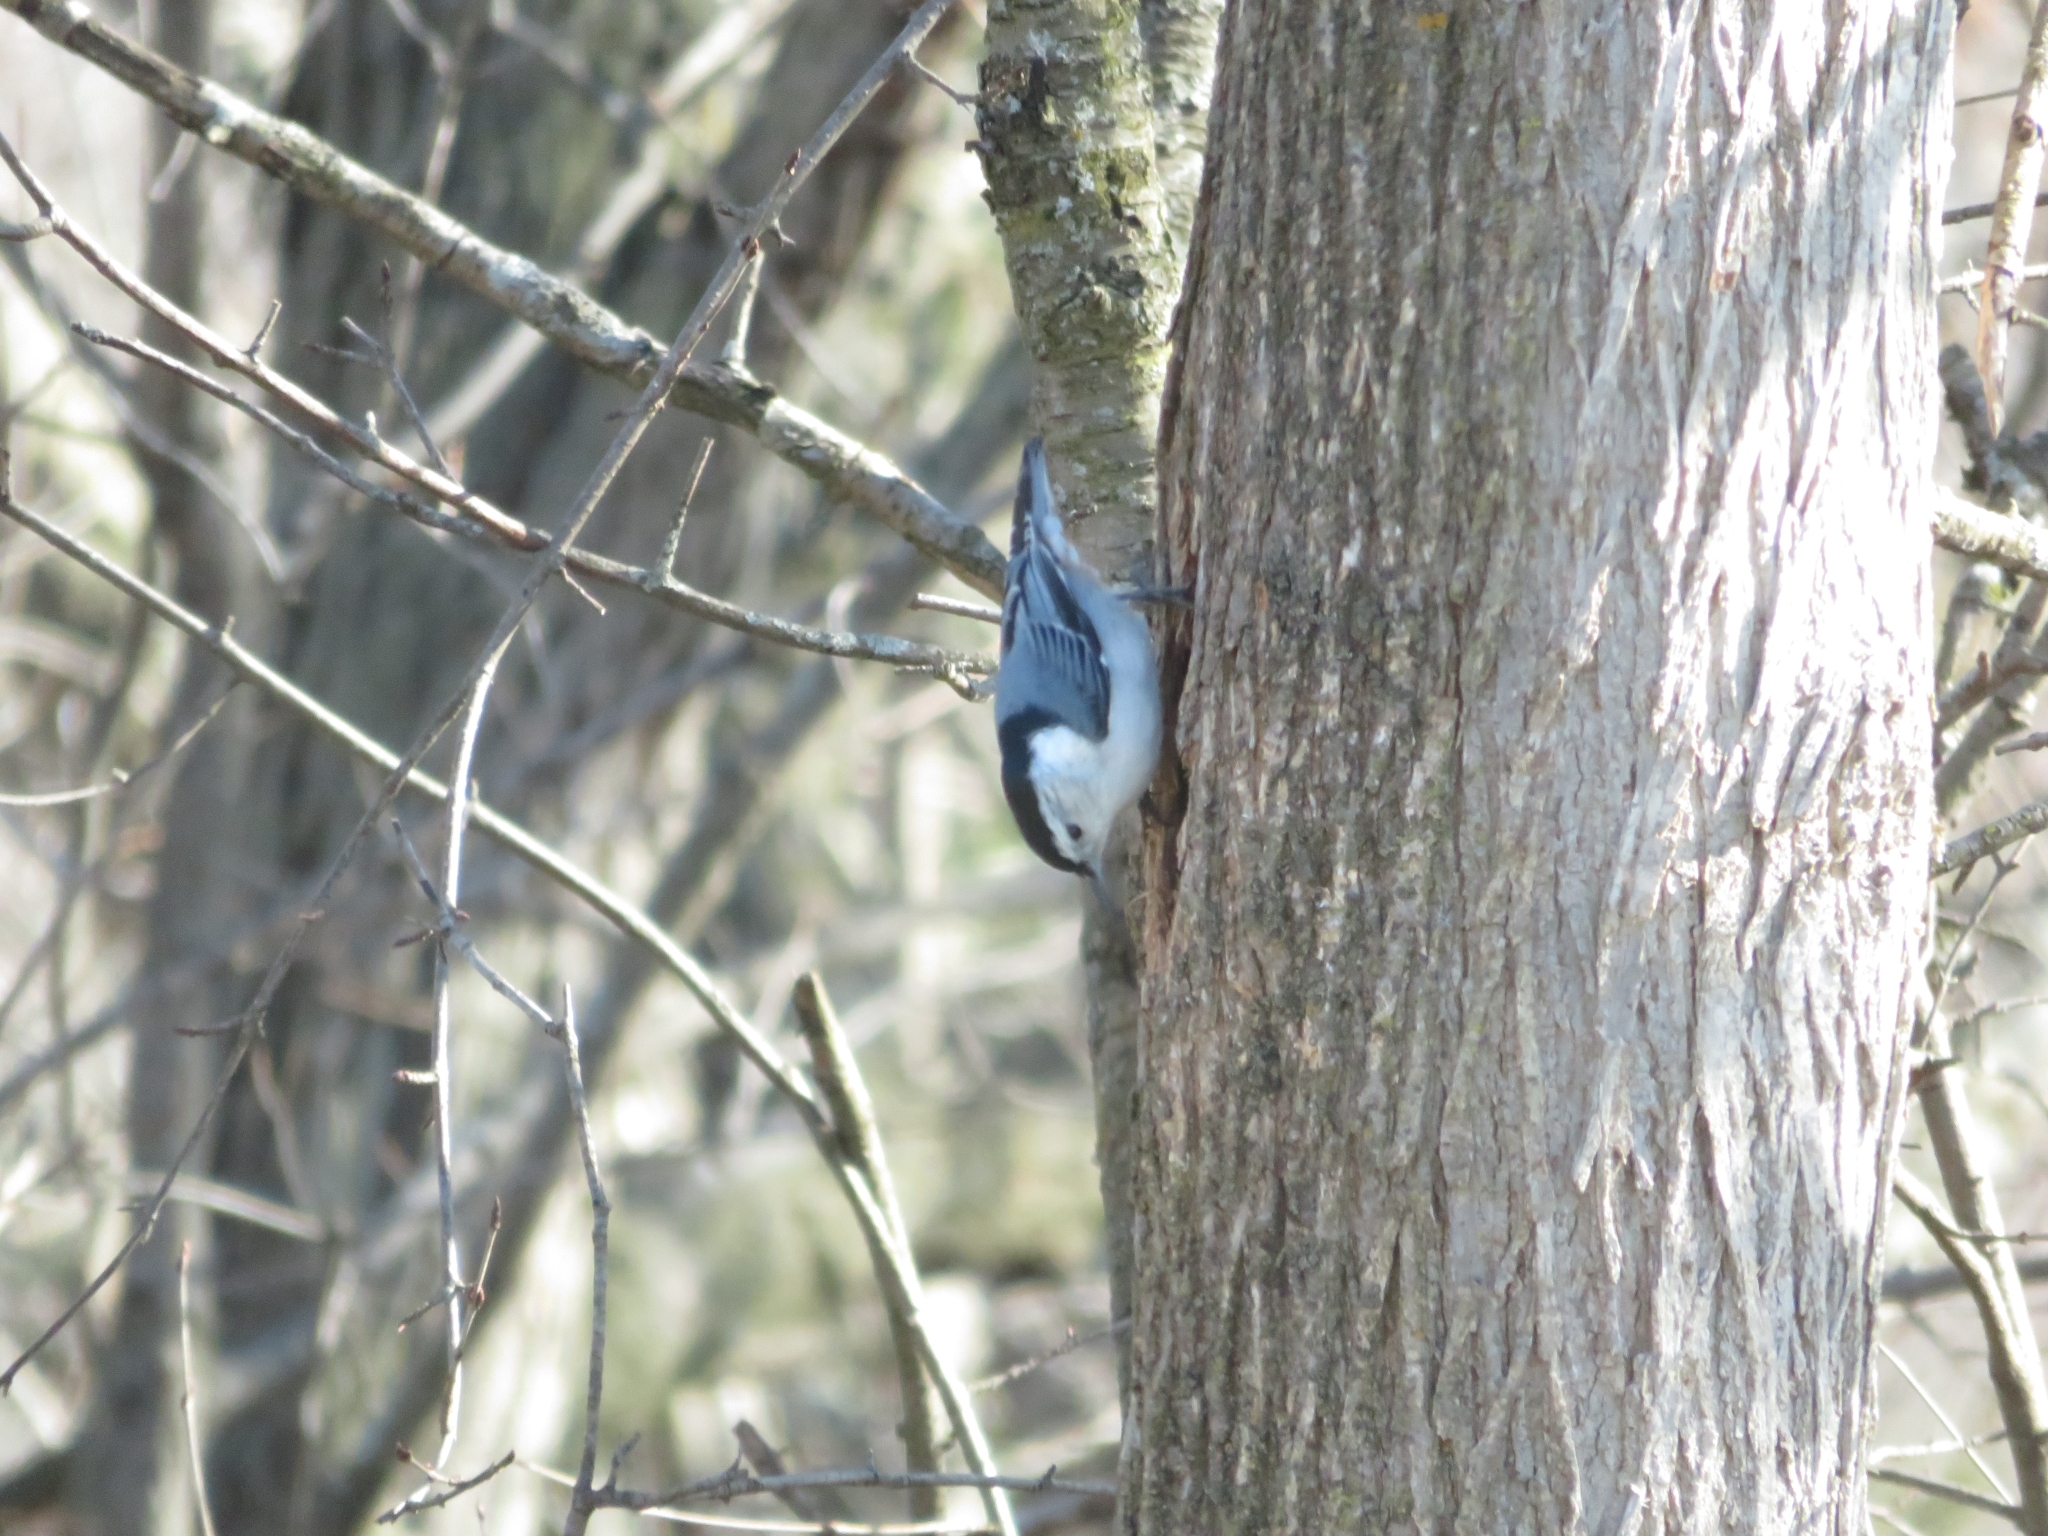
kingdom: Animalia
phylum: Chordata
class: Aves
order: Passeriformes
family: Sittidae
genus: Sitta
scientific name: Sitta carolinensis
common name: White-breasted nuthatch
